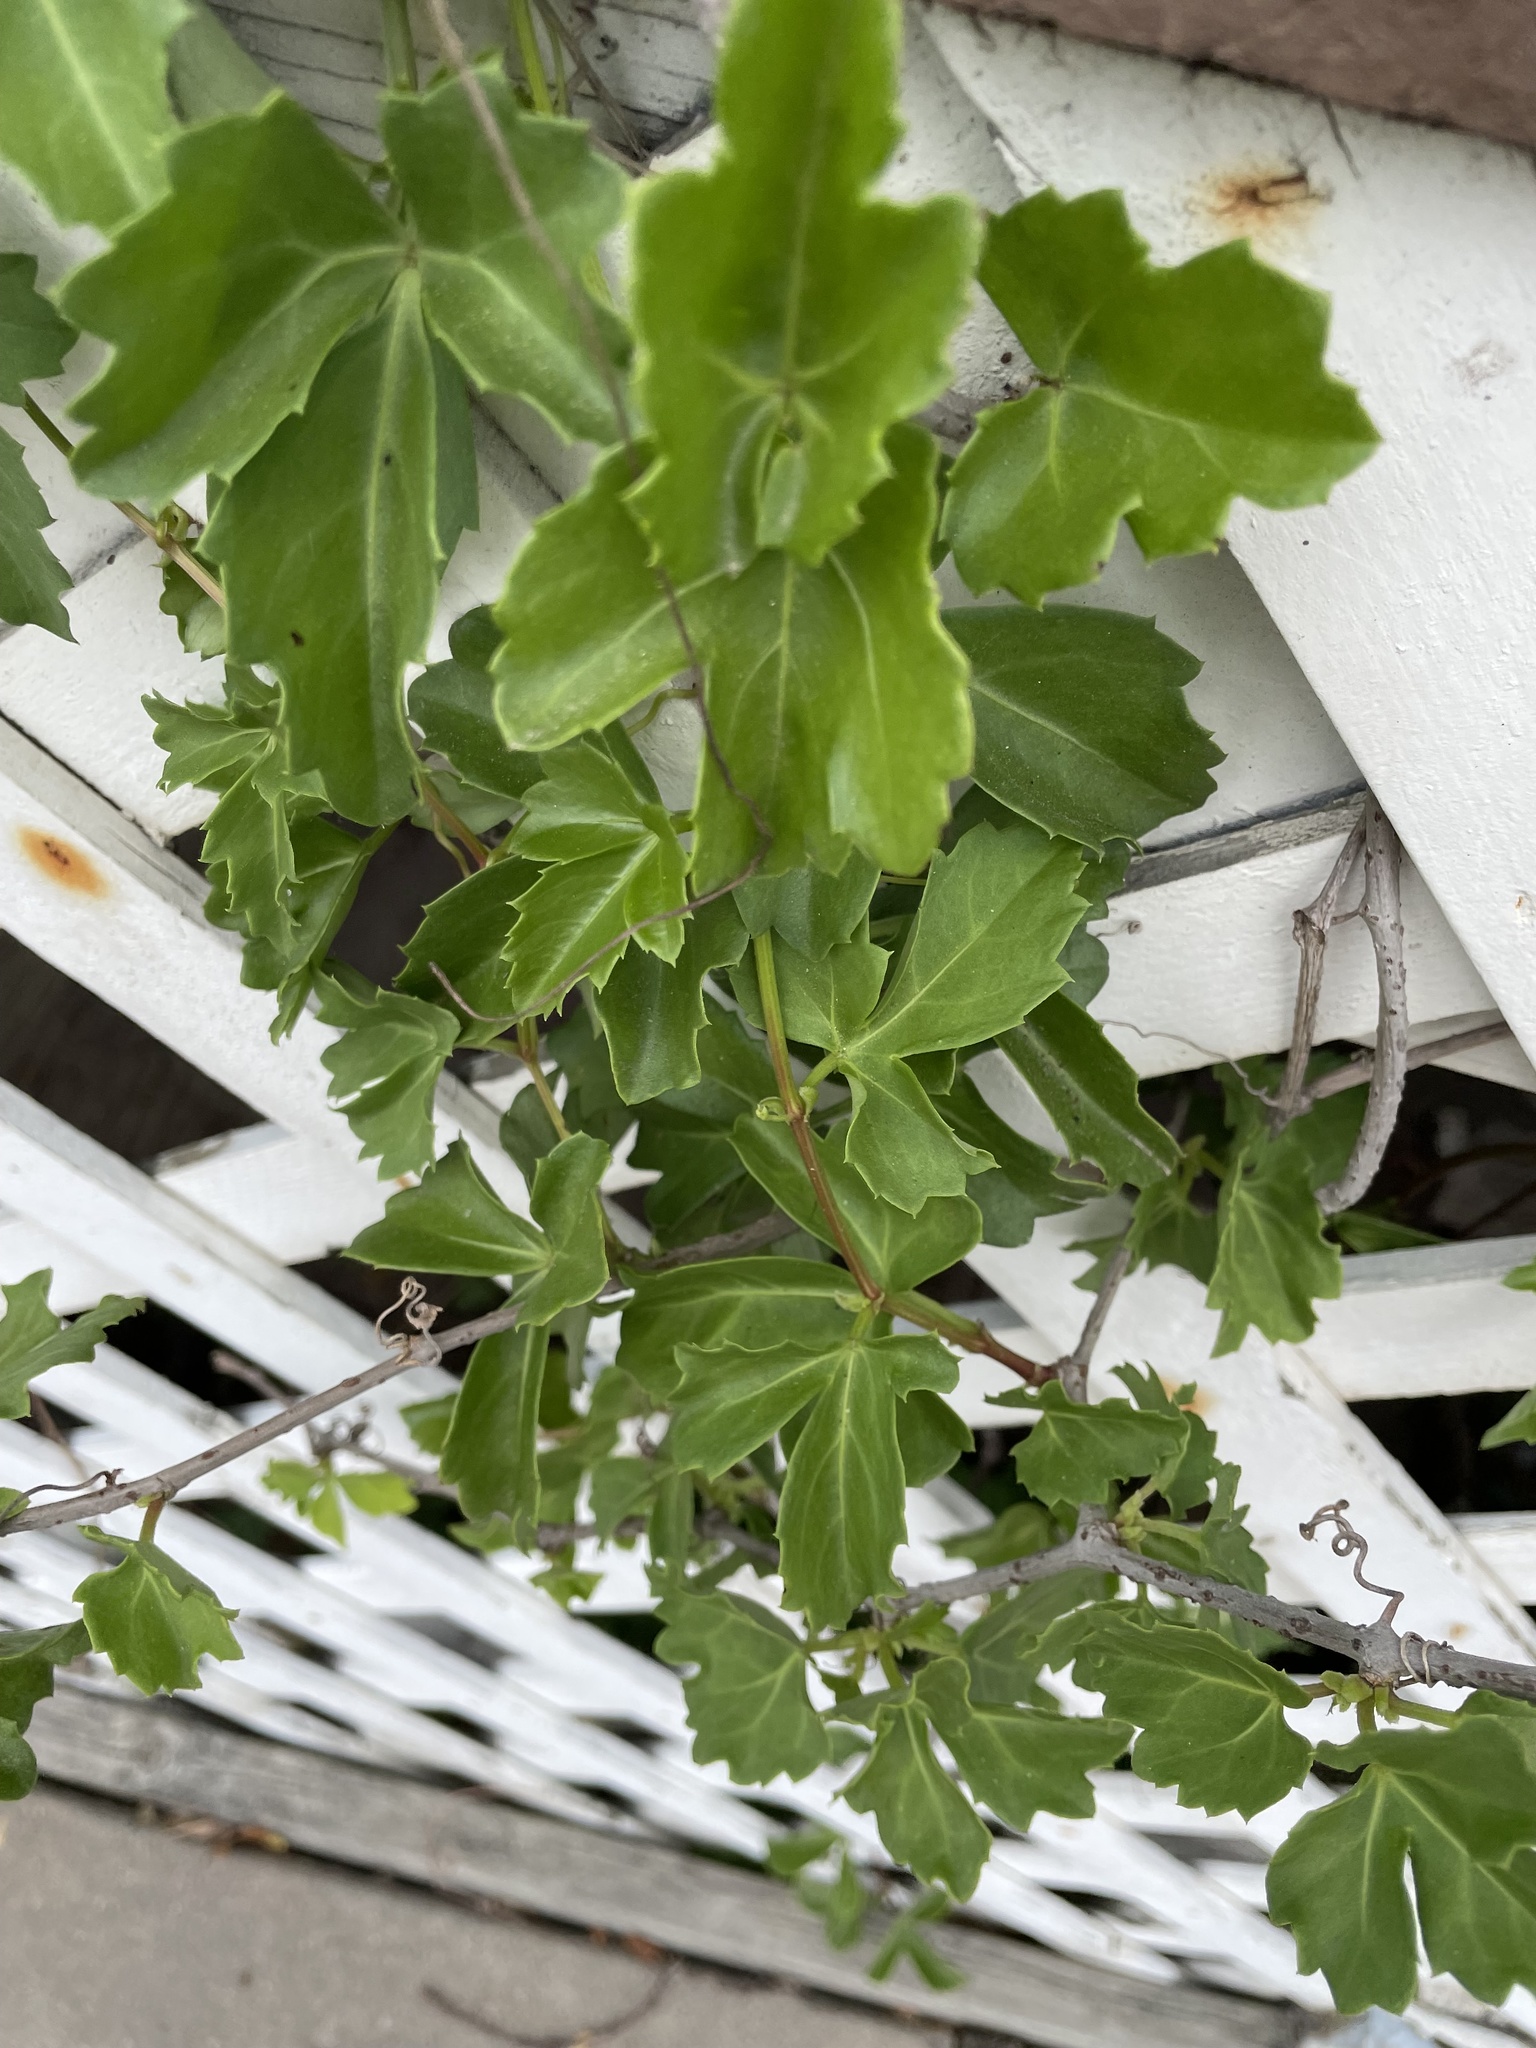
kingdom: Plantae
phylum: Tracheophyta
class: Magnoliopsida
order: Vitales
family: Vitaceae
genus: Cissus
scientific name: Cissus trifoliata
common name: Vine-sorrel
